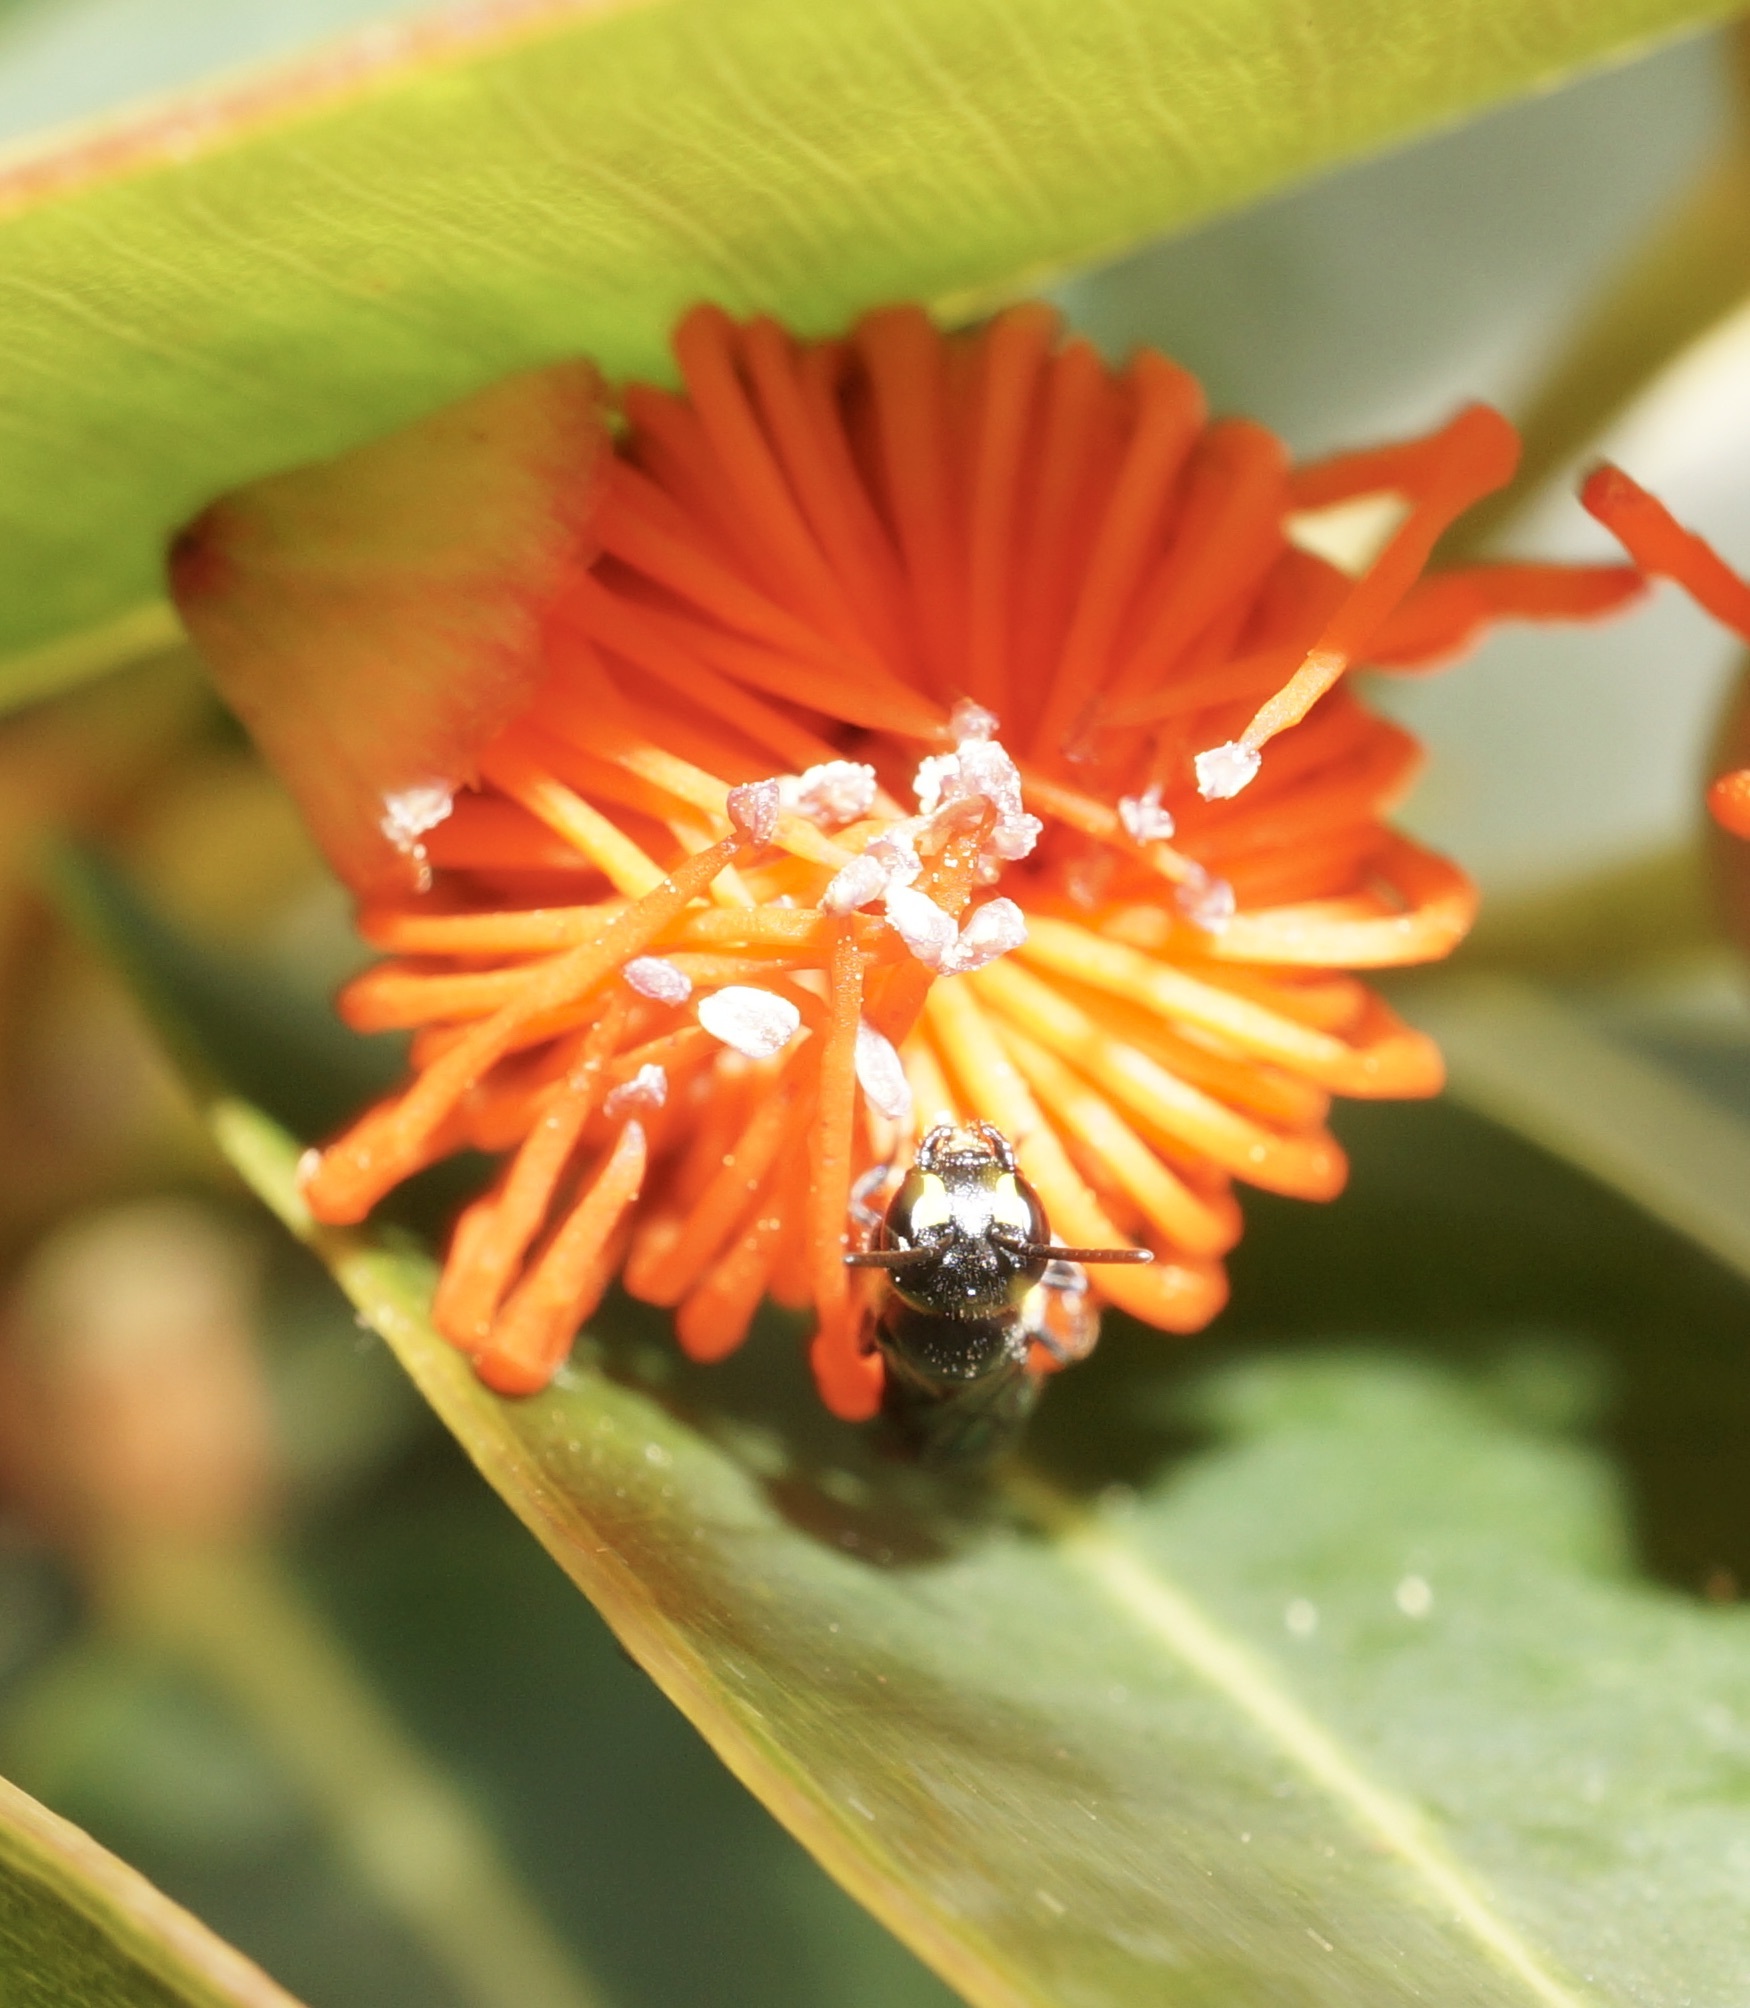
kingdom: Animalia
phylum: Arthropoda
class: Insecta
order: Hymenoptera
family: Colletidae
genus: Hylaeus
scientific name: Hylaeus agilis
